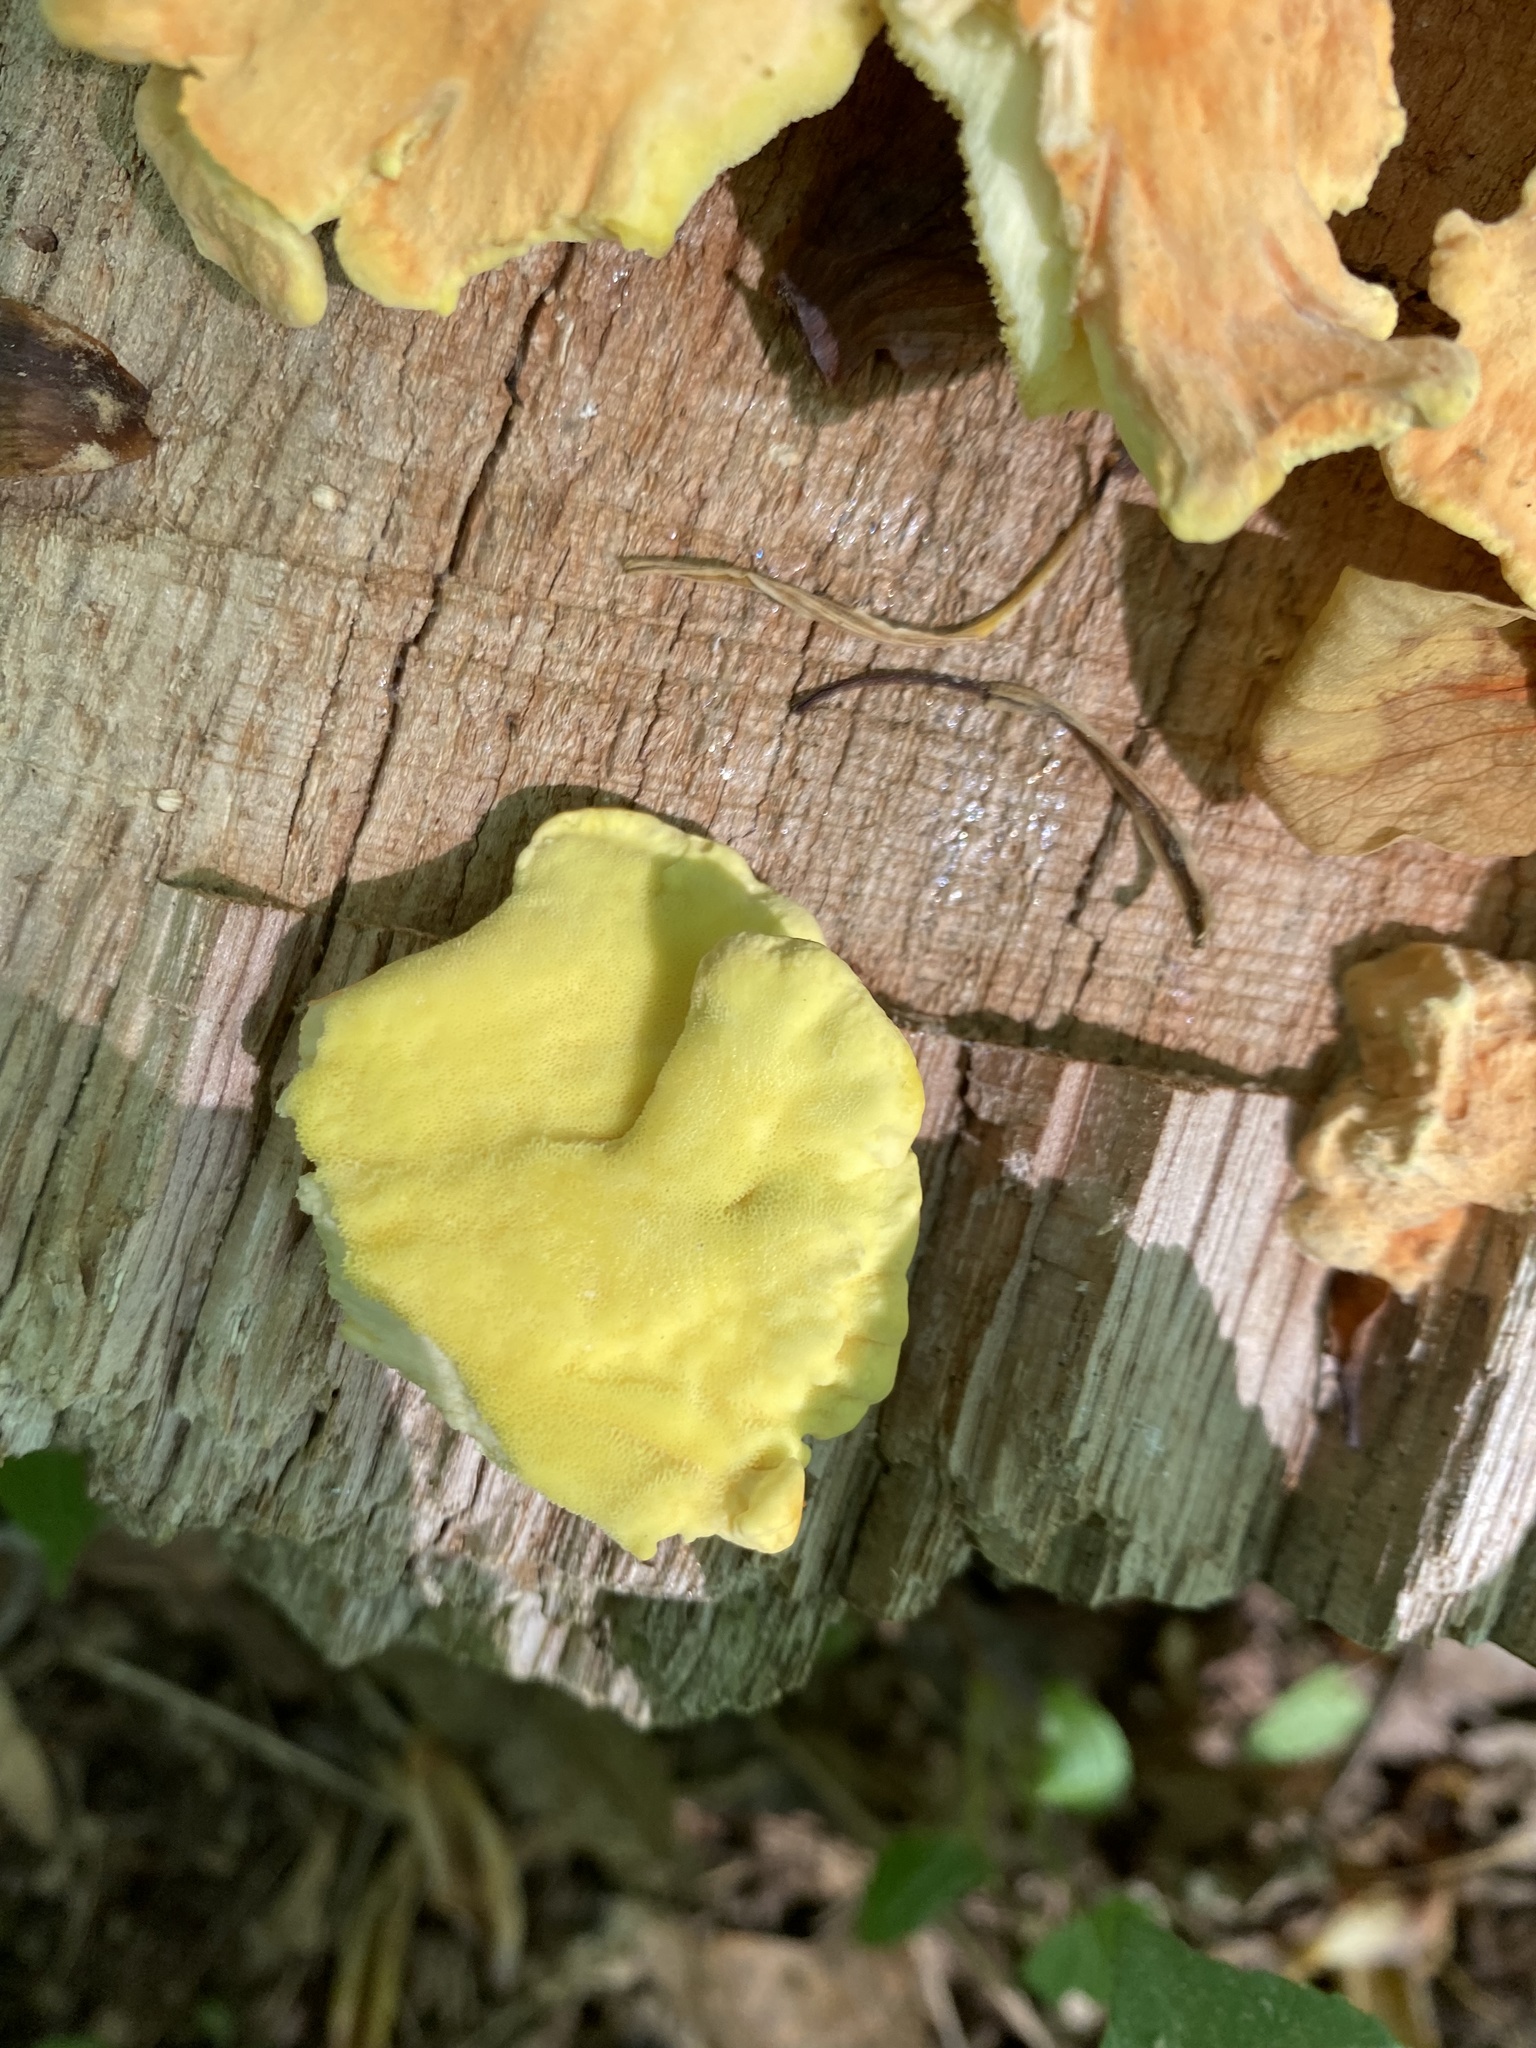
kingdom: Fungi
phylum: Basidiomycota
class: Agaricomycetes
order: Polyporales
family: Laetiporaceae
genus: Laetiporus
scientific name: Laetiporus sulphureus
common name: Chicken of the woods
